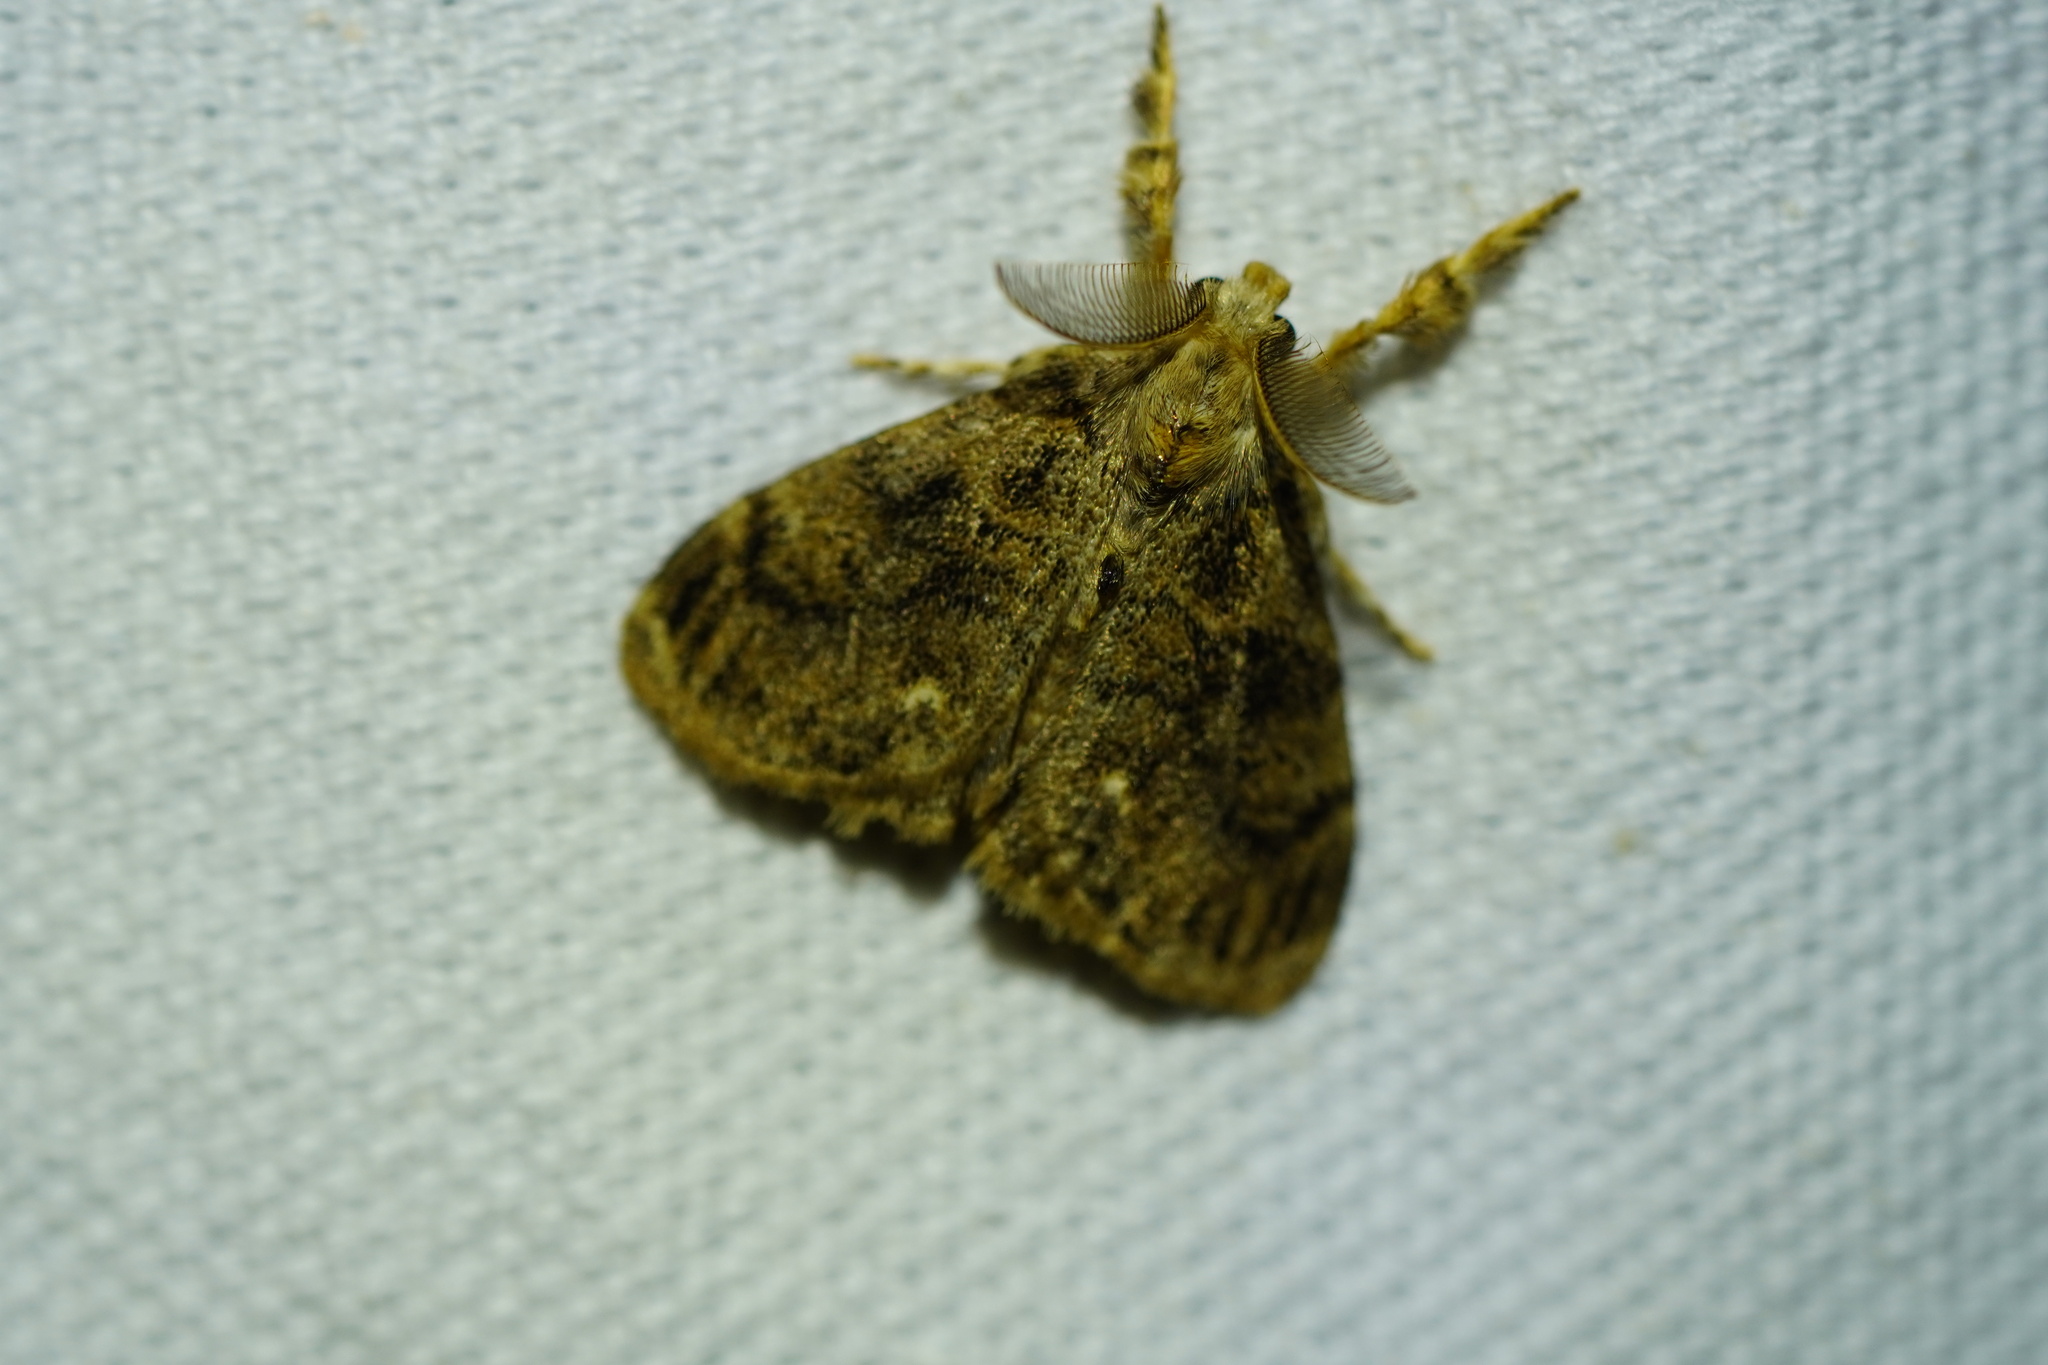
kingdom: Animalia
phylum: Arthropoda
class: Insecta
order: Lepidoptera
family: Erebidae
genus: Orgyia
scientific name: Orgyia detrita
